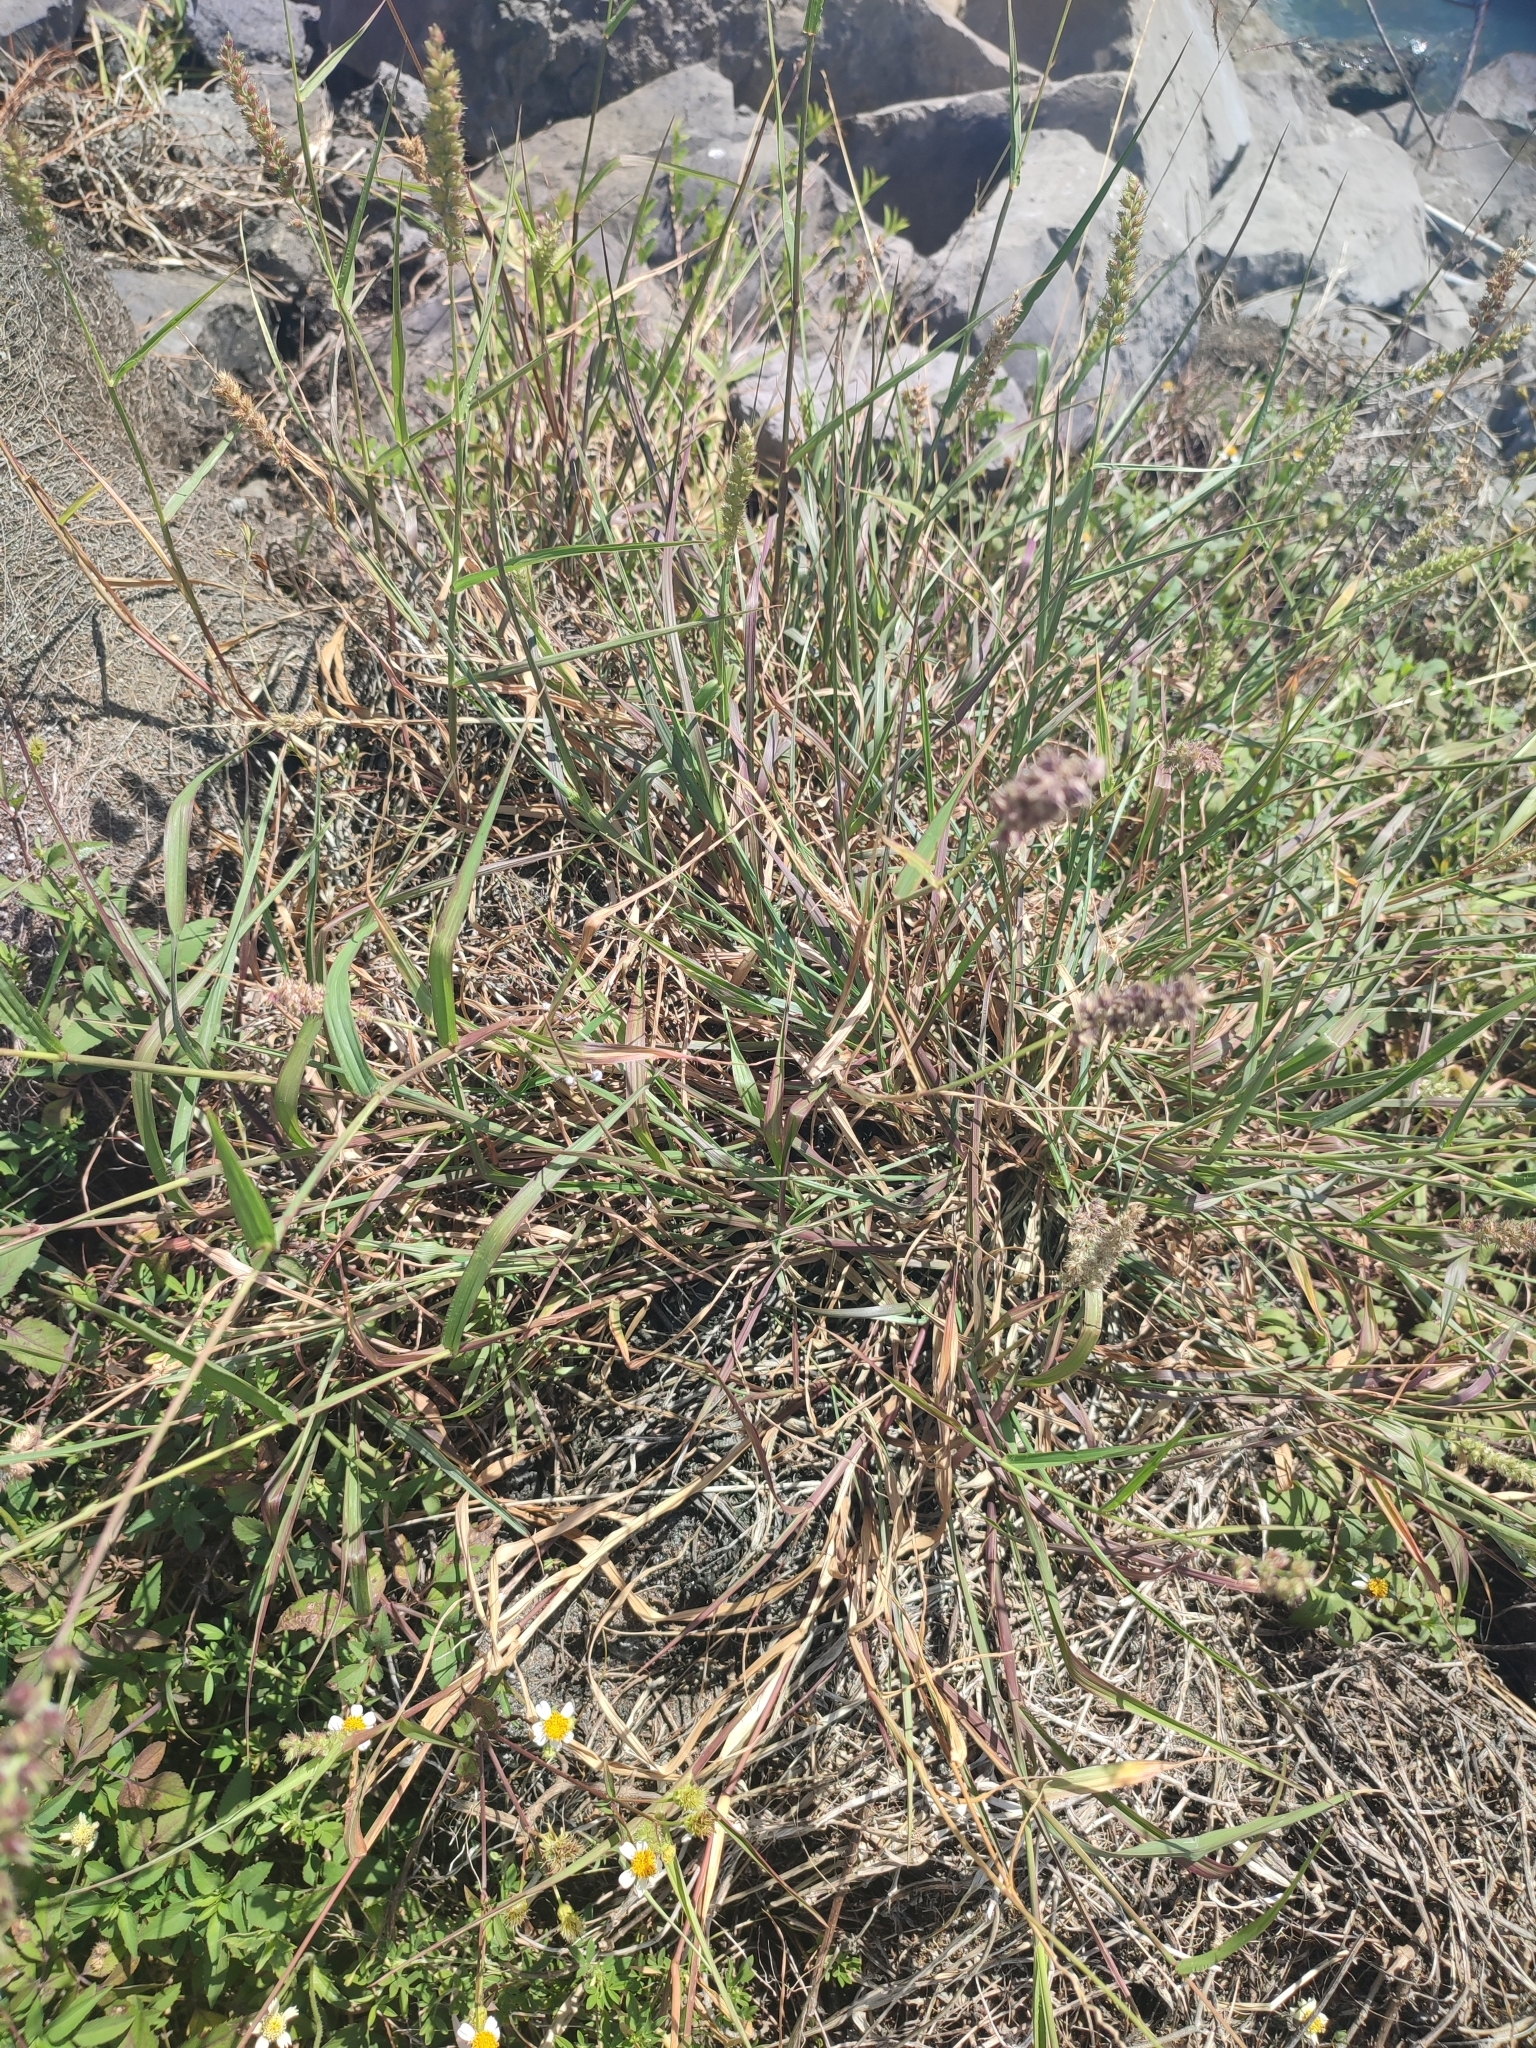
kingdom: Plantae
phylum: Tracheophyta
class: Liliopsida
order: Poales
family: Poaceae
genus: Cenchrus
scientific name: Cenchrus echinatus
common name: Southern sandbur
